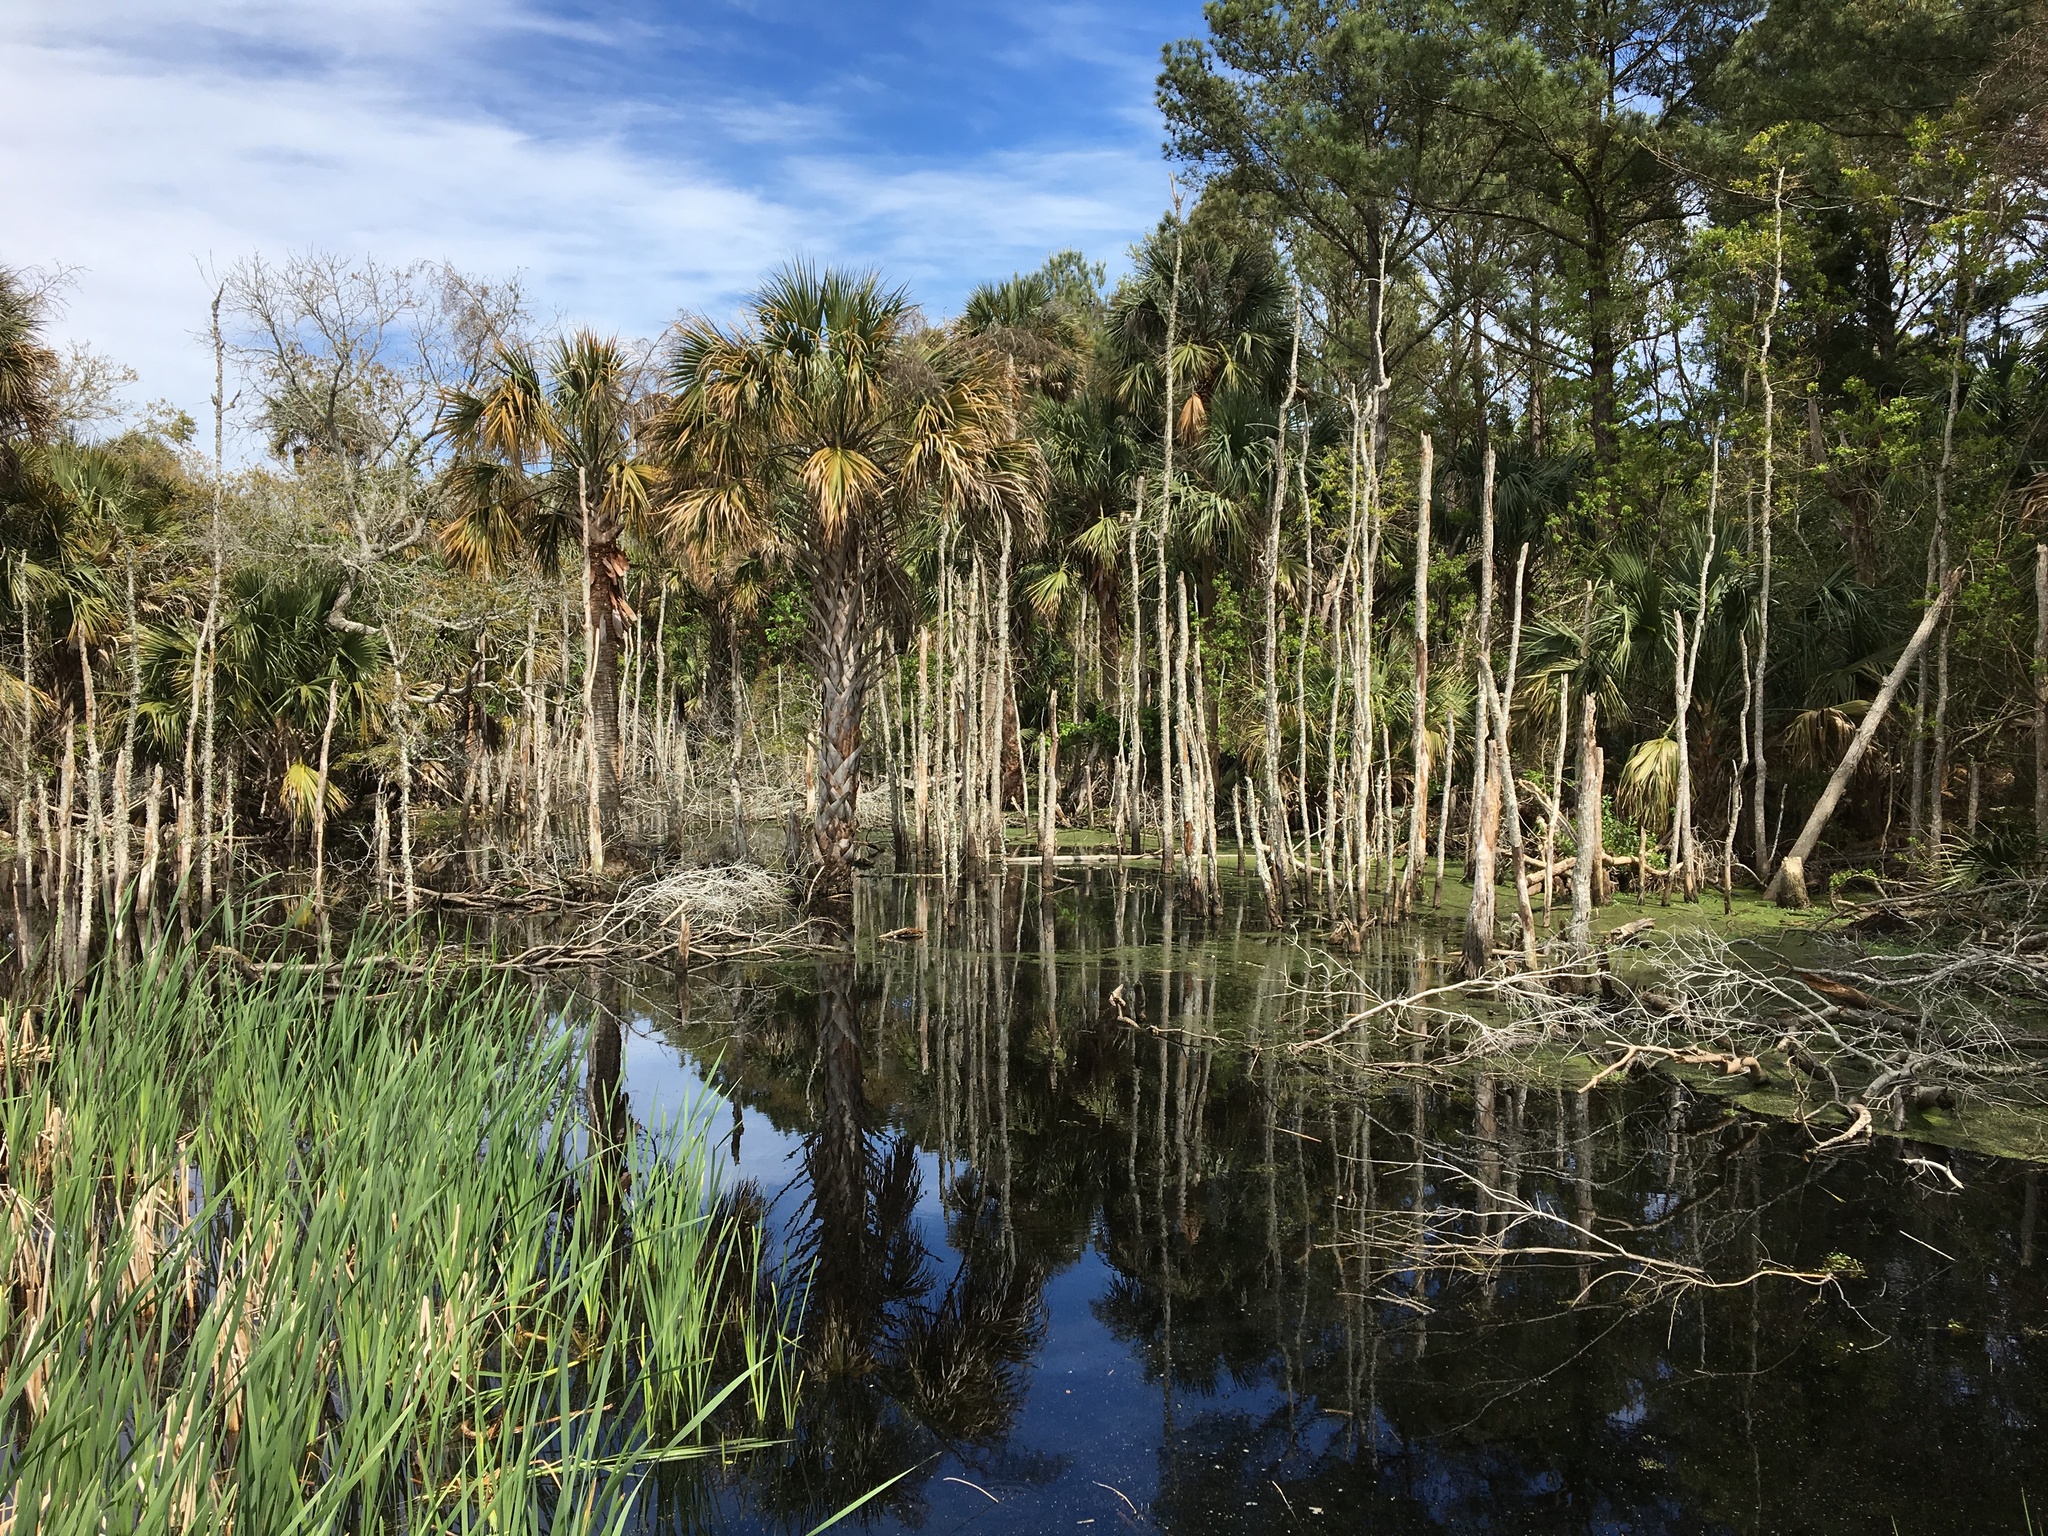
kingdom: Plantae
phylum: Tracheophyta
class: Liliopsida
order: Arecales
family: Arecaceae
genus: Sabal
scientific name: Sabal palmetto
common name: Blue palmetto
